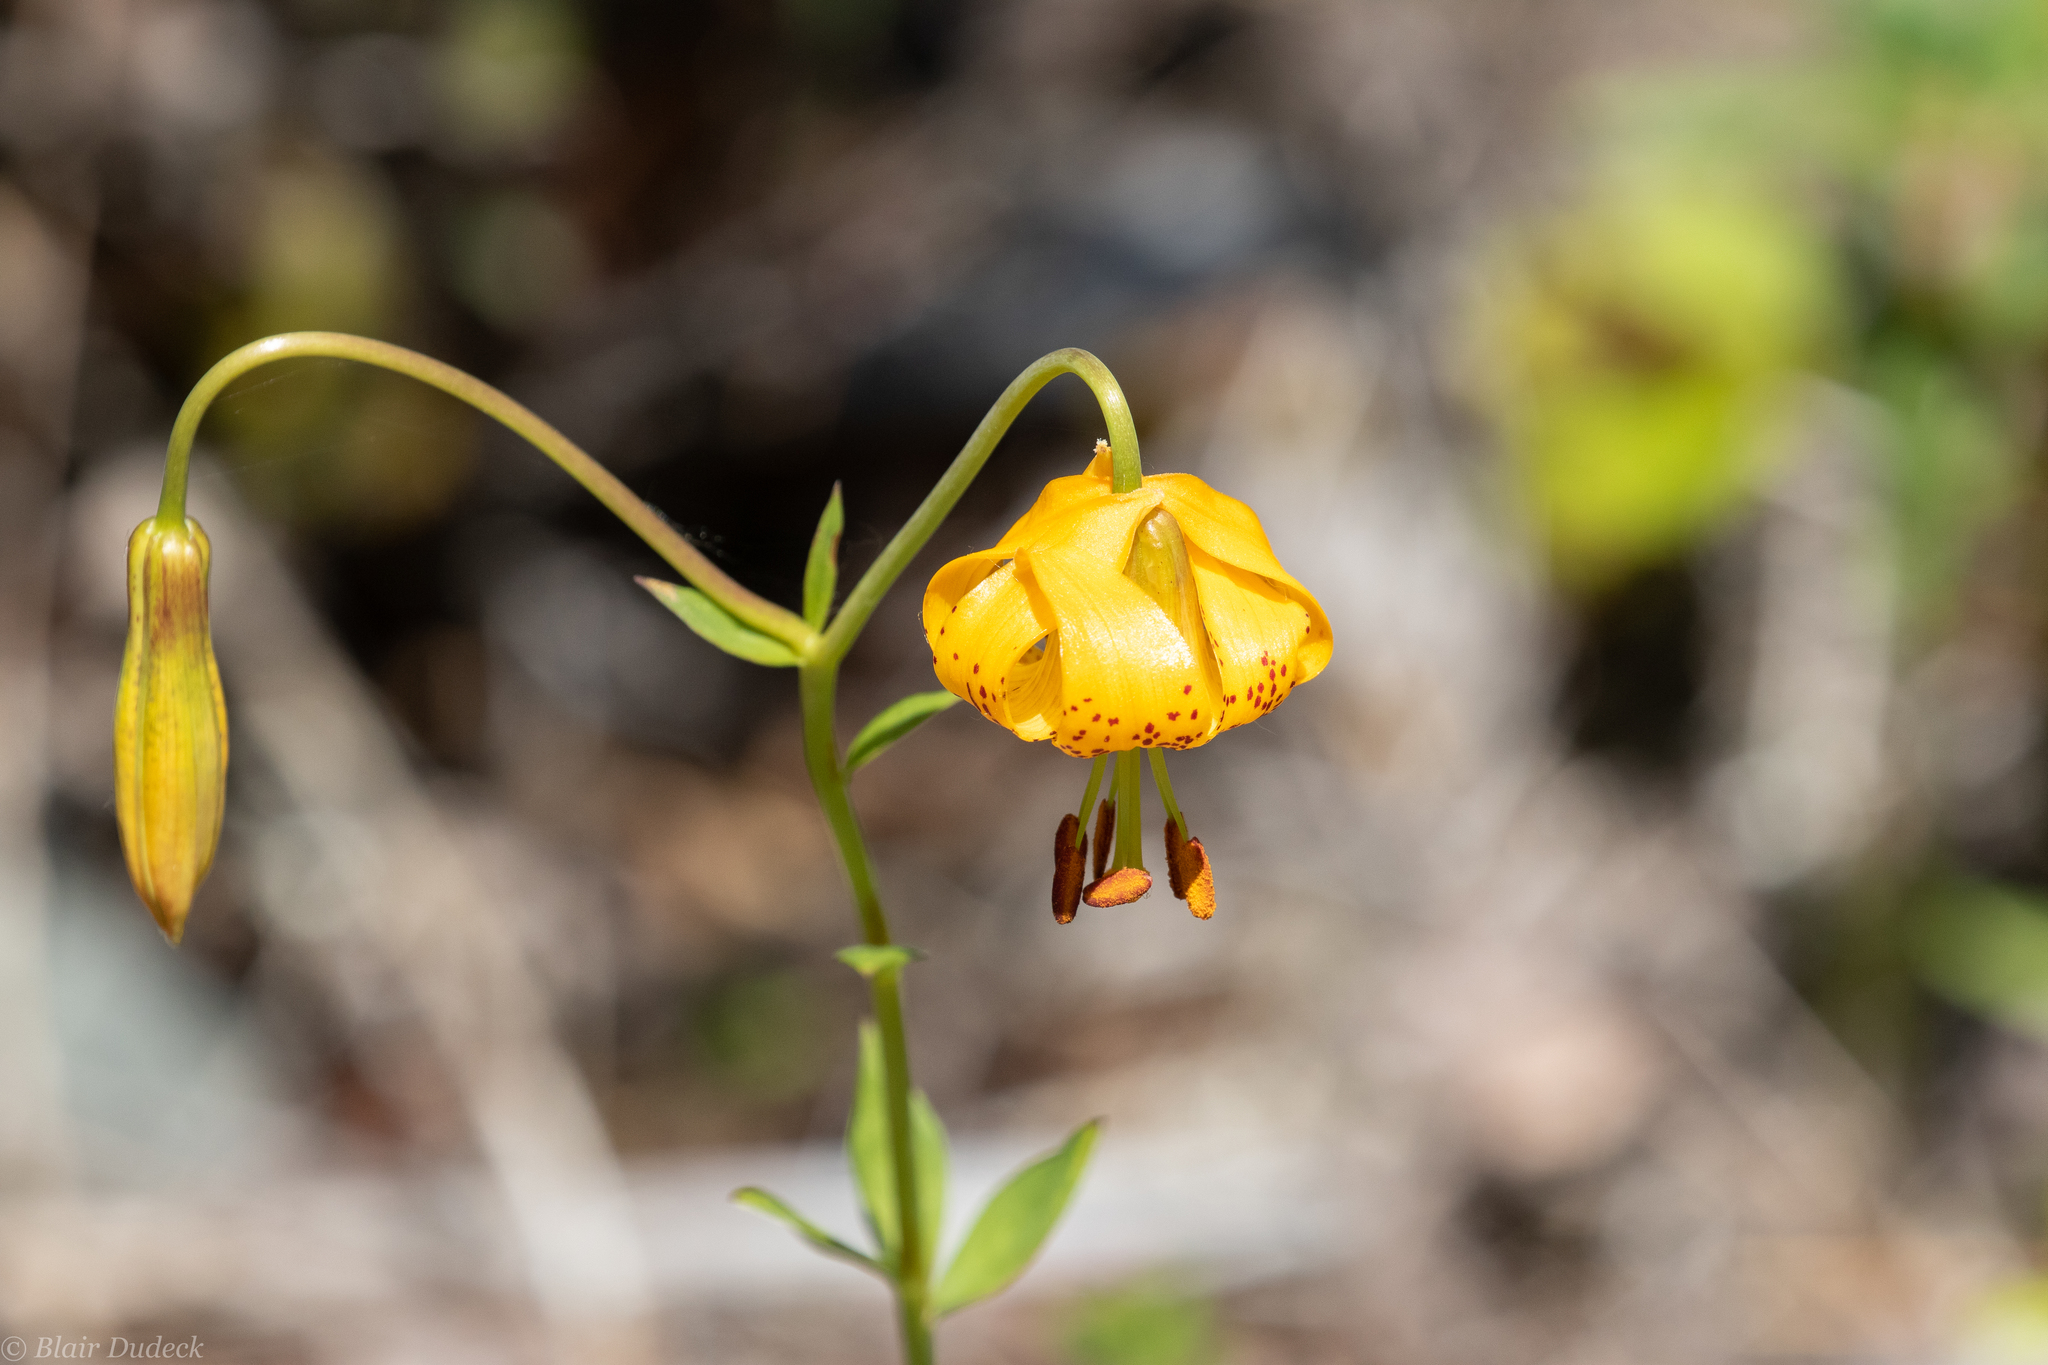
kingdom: Plantae
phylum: Tracheophyta
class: Liliopsida
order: Liliales
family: Liliaceae
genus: Lilium
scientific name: Lilium columbianum
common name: Columbia lily
